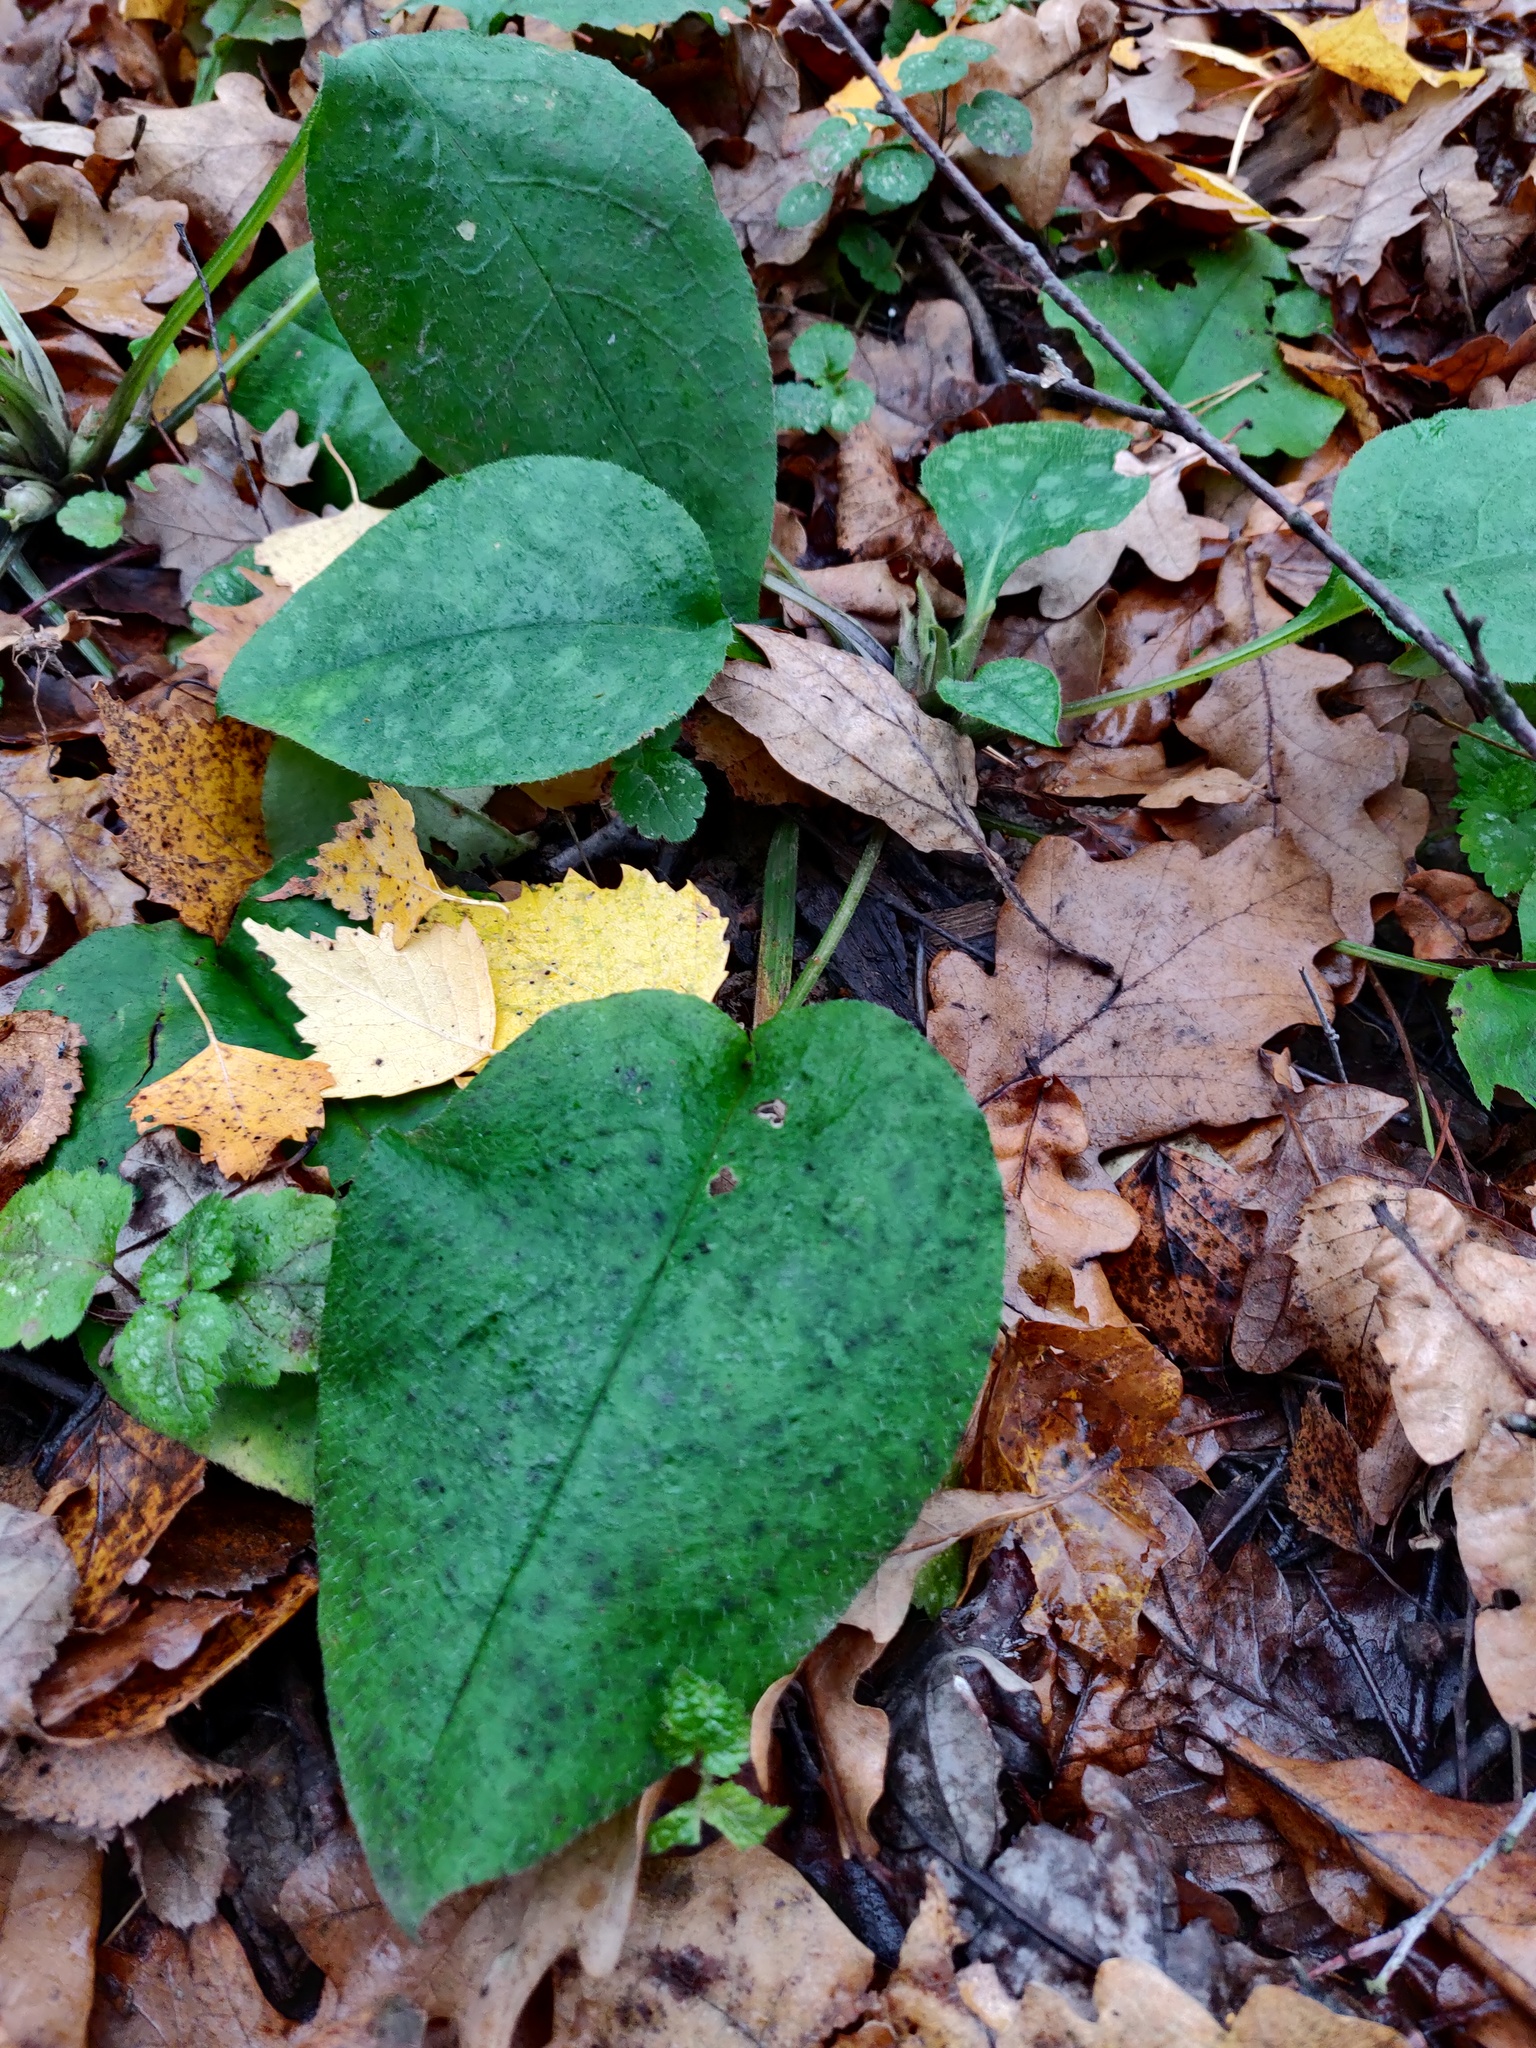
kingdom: Plantae
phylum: Tracheophyta
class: Magnoliopsida
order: Boraginales
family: Boraginaceae
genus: Pulmonaria
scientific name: Pulmonaria obscura
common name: Suffolk lungwort
